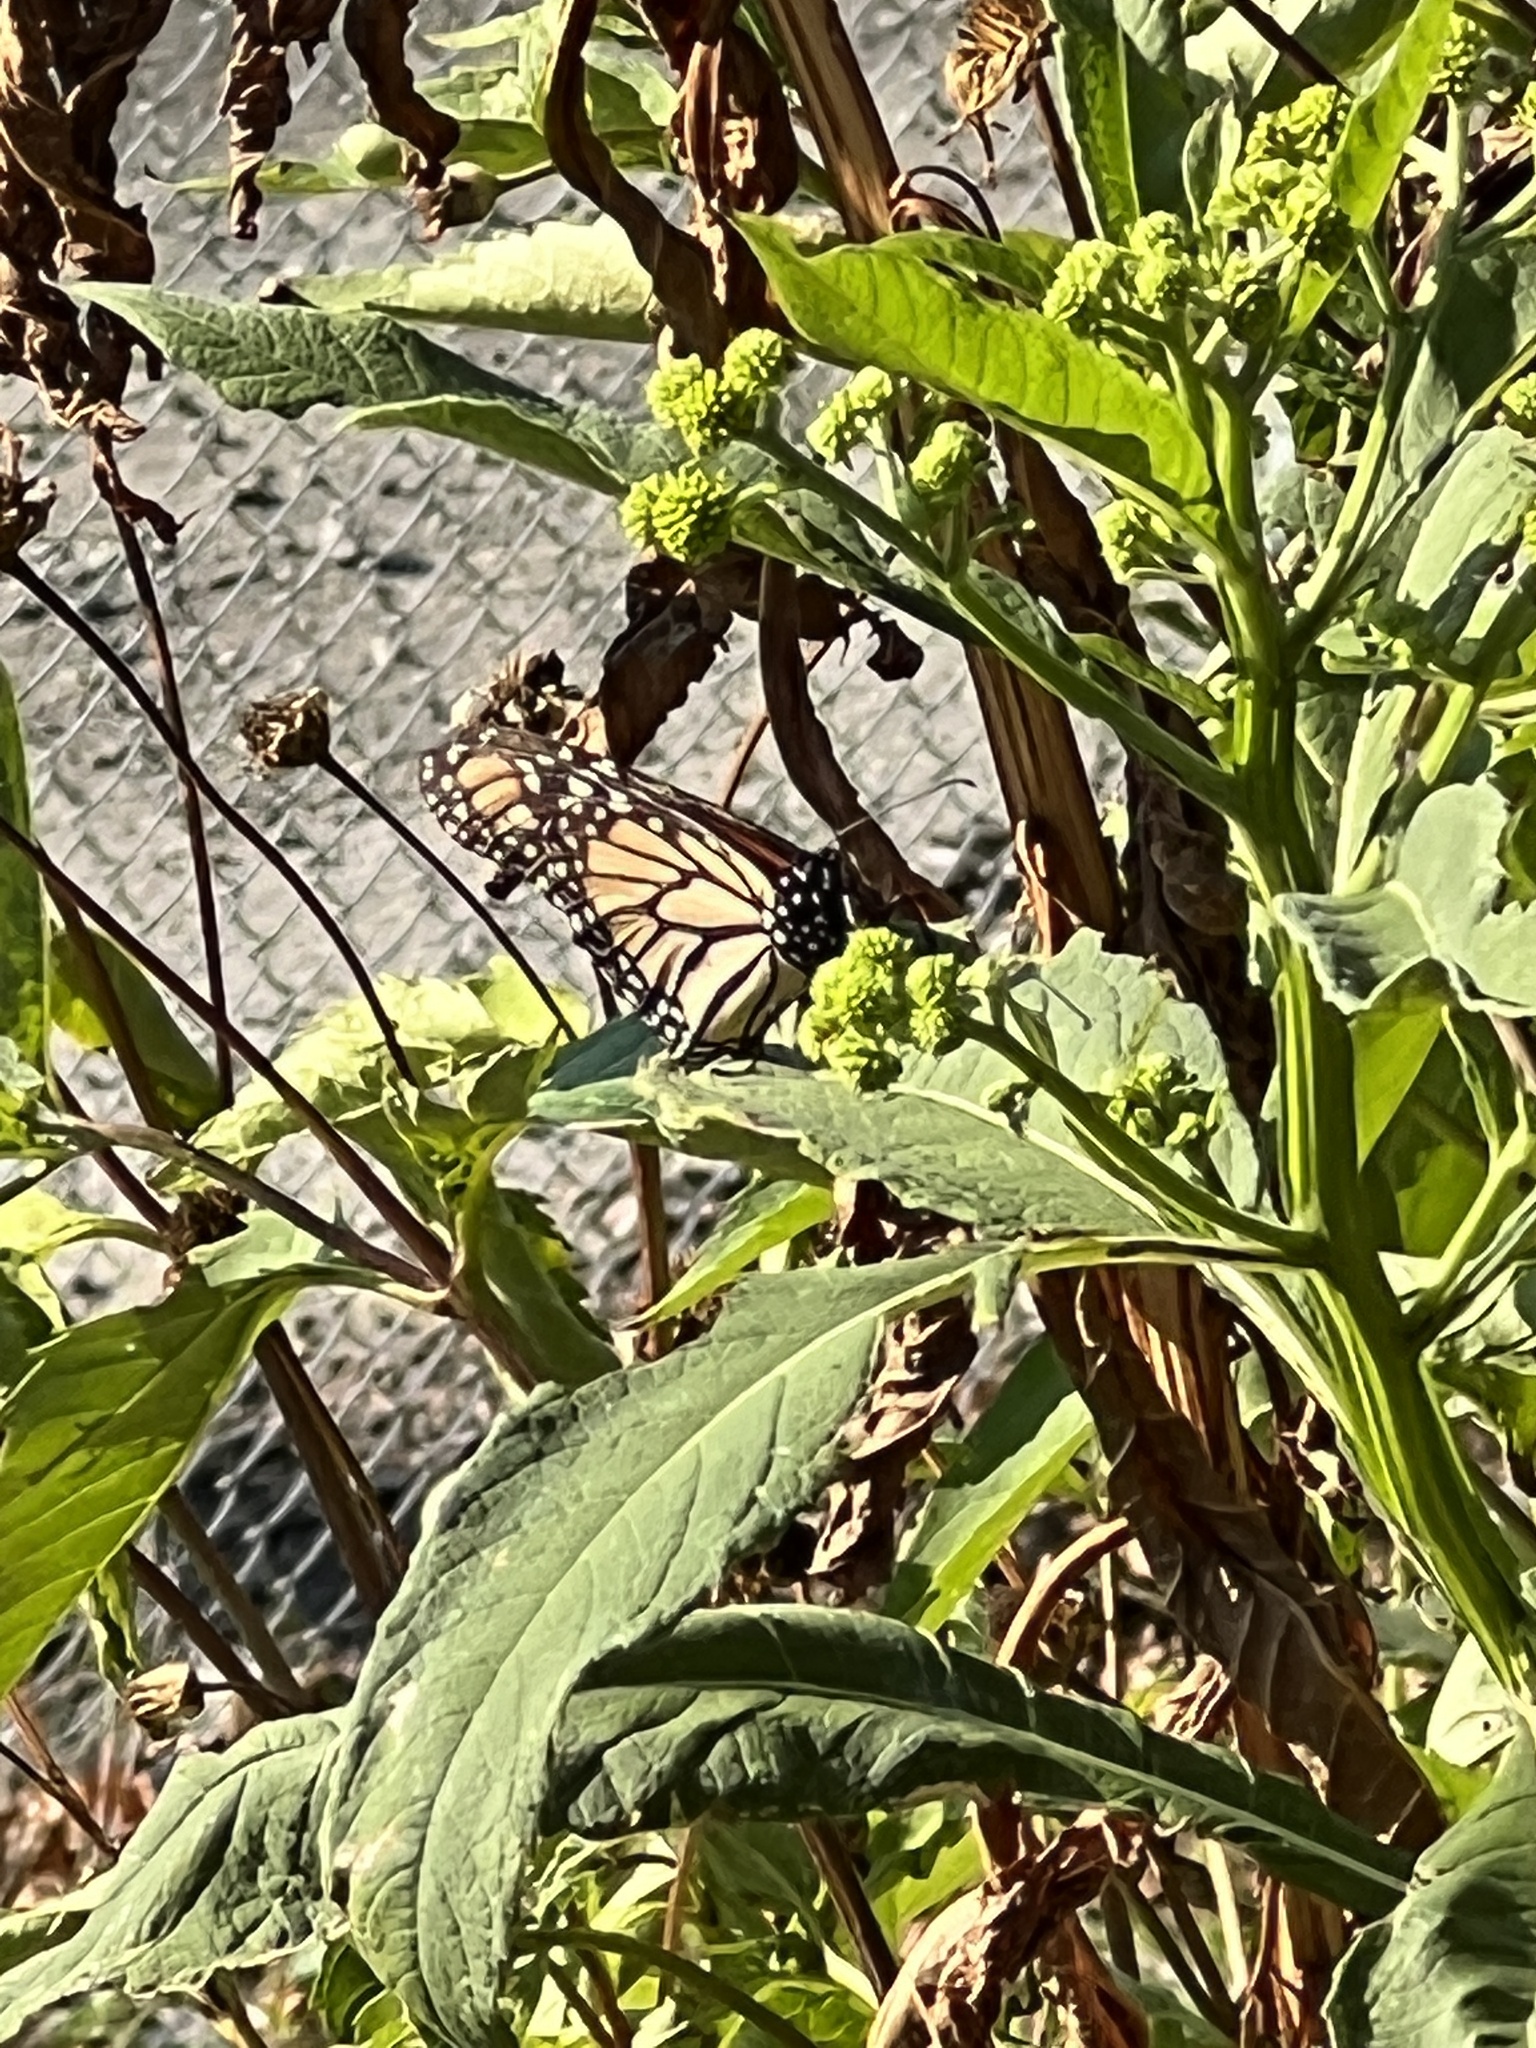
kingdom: Animalia
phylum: Arthropoda
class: Insecta
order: Lepidoptera
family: Nymphalidae
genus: Danaus
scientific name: Danaus plexippus
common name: Monarch
